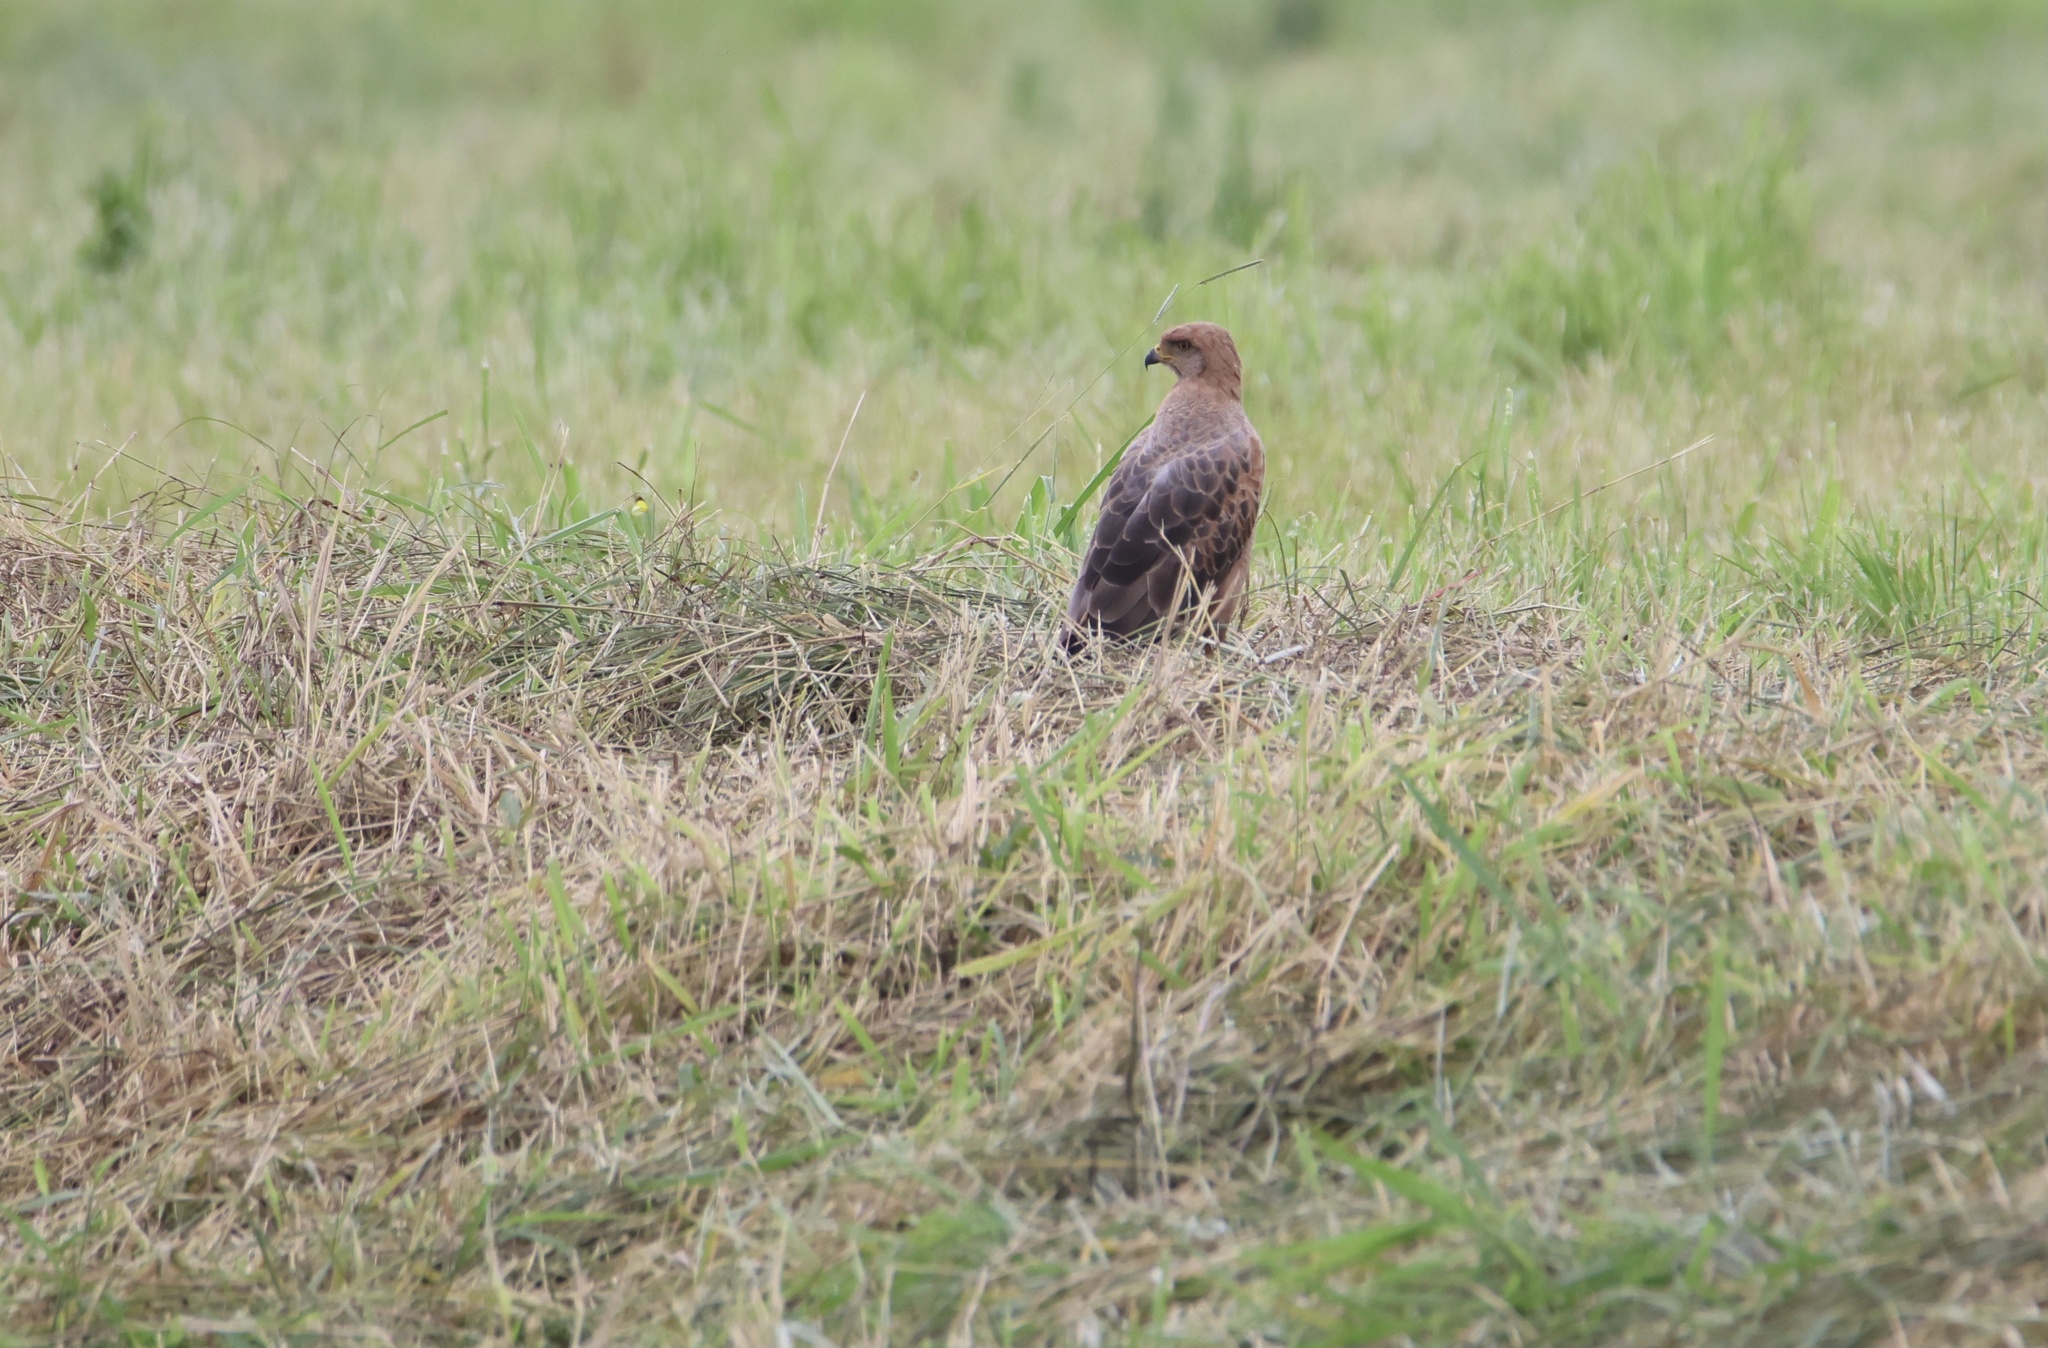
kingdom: Animalia
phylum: Chordata
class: Aves
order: Accipitriformes
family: Accipitridae
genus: Buteogallus
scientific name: Buteogallus meridionalis
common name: Savanna hawk
